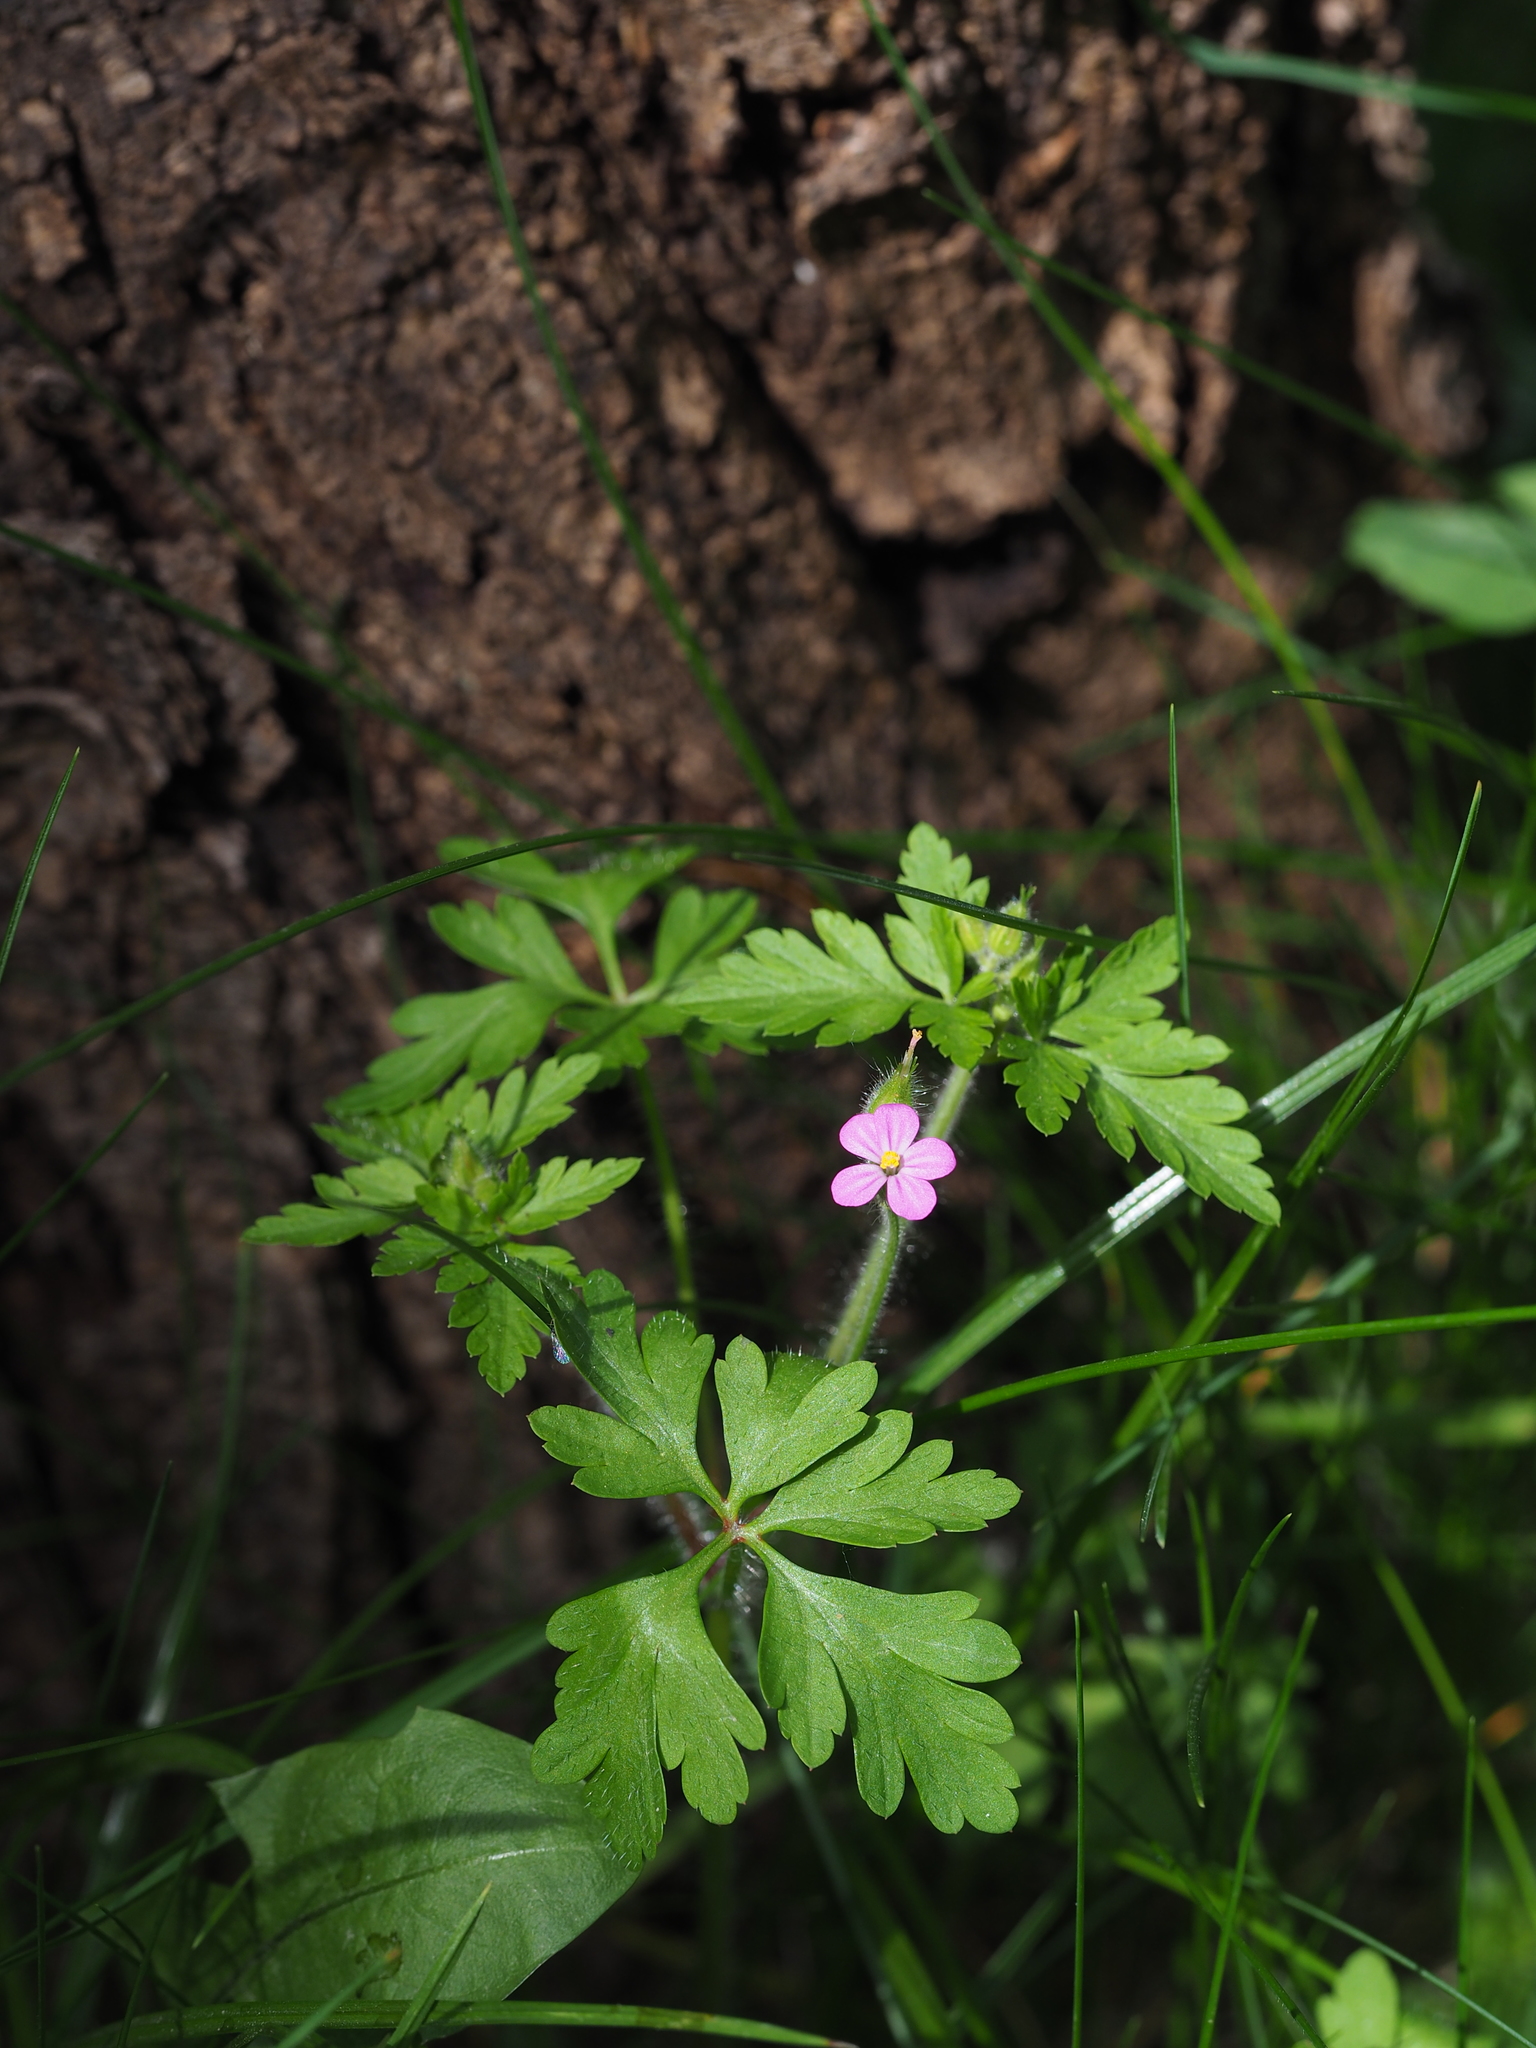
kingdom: Plantae
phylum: Tracheophyta
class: Magnoliopsida
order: Geraniales
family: Geraniaceae
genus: Geranium
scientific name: Geranium purpureum
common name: Little-robin
